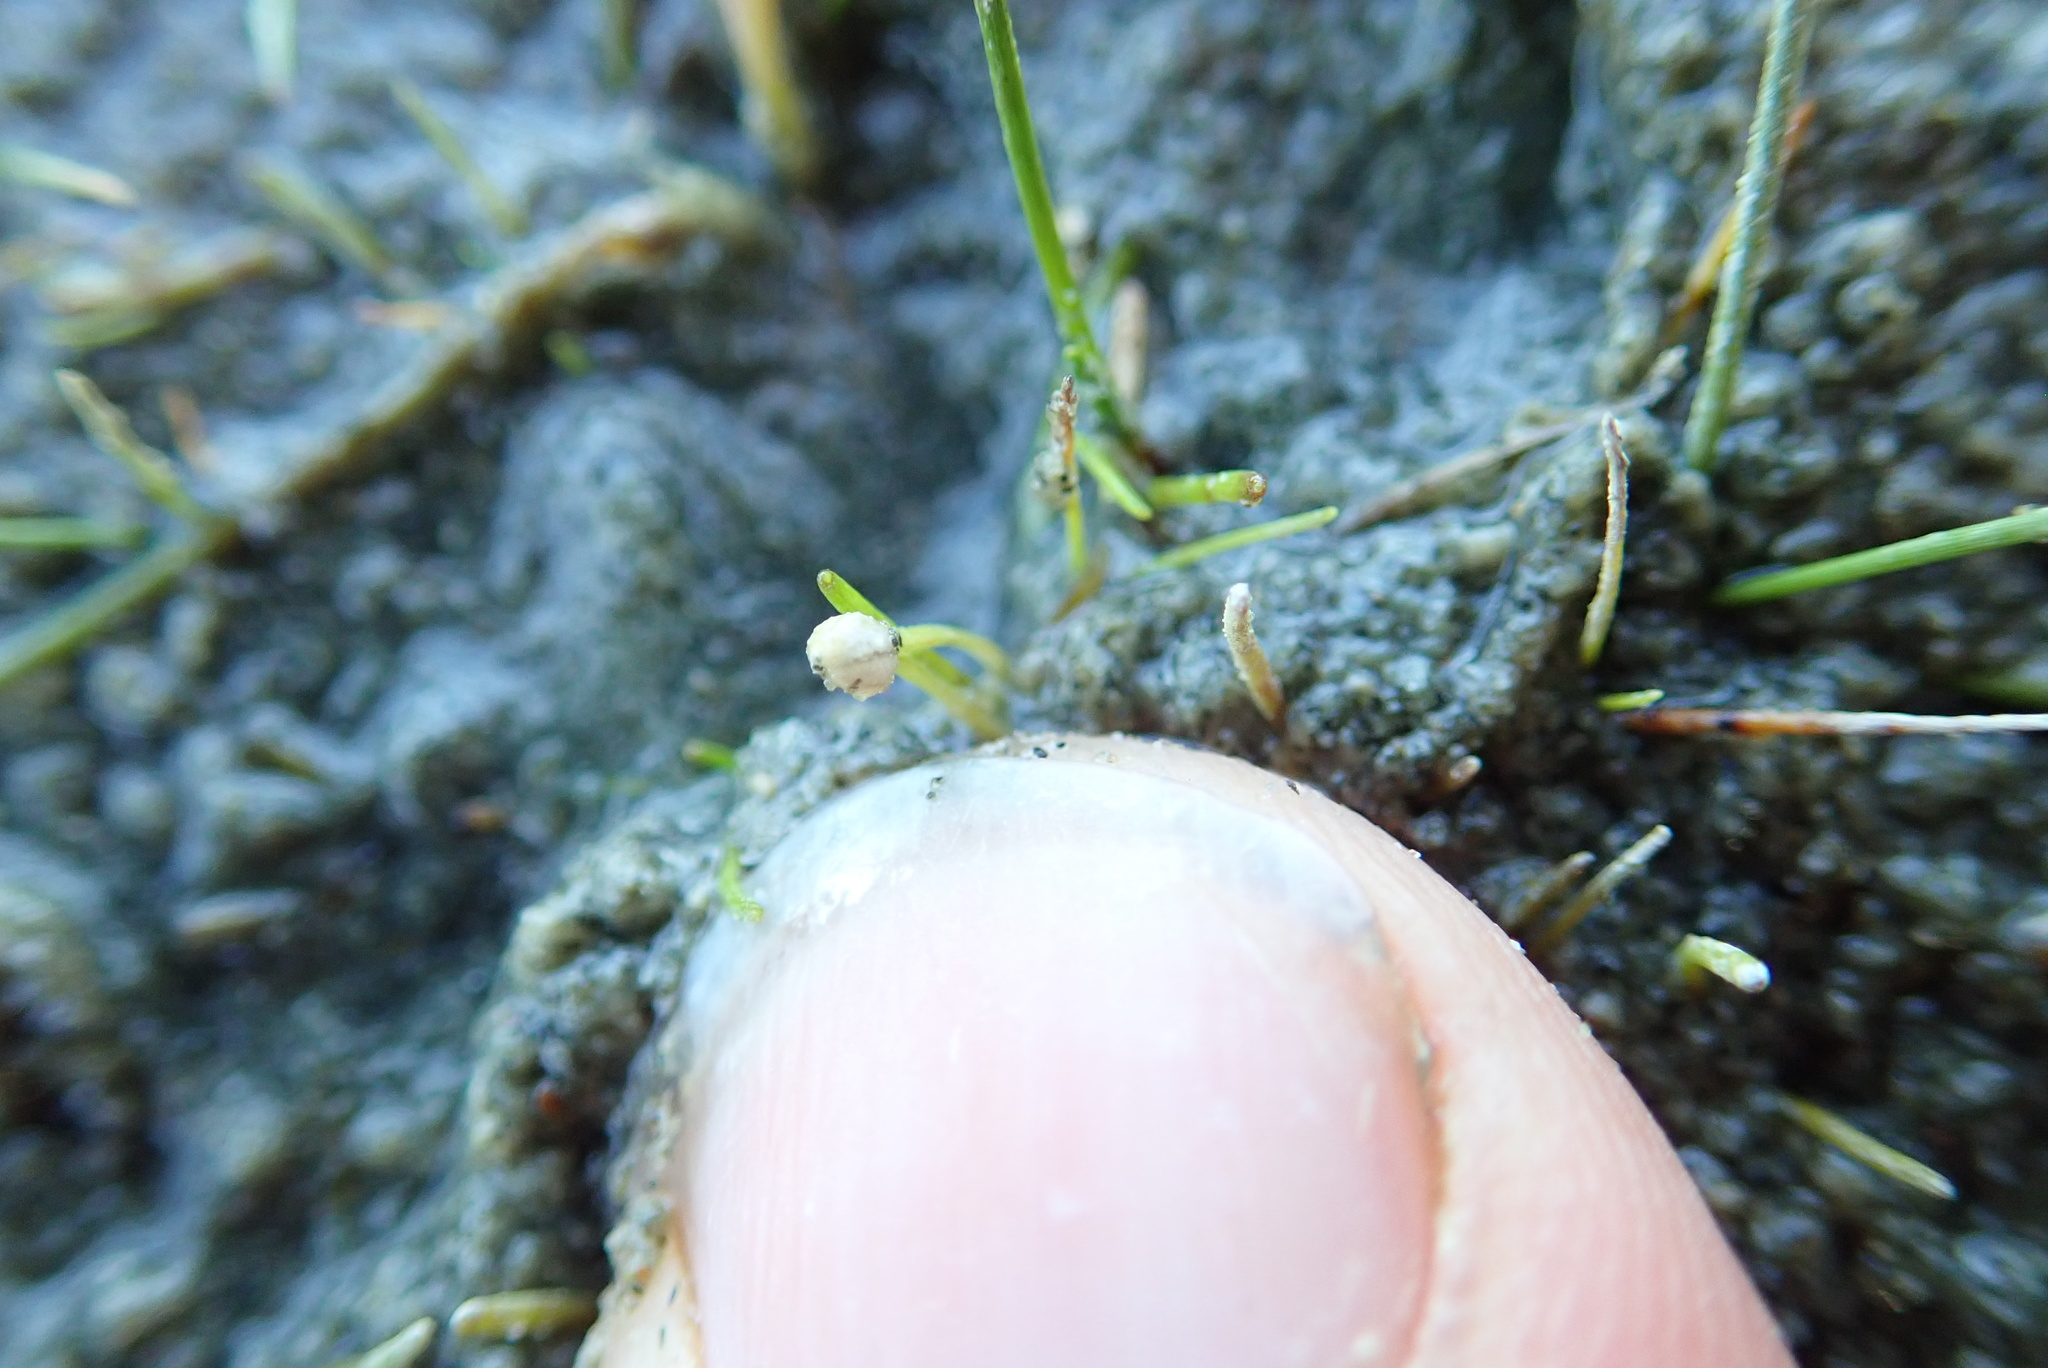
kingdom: Plantae
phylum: Tracheophyta
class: Liliopsida
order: Alismatales
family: Juncaginaceae
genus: Triglochin
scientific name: Triglochin striata
